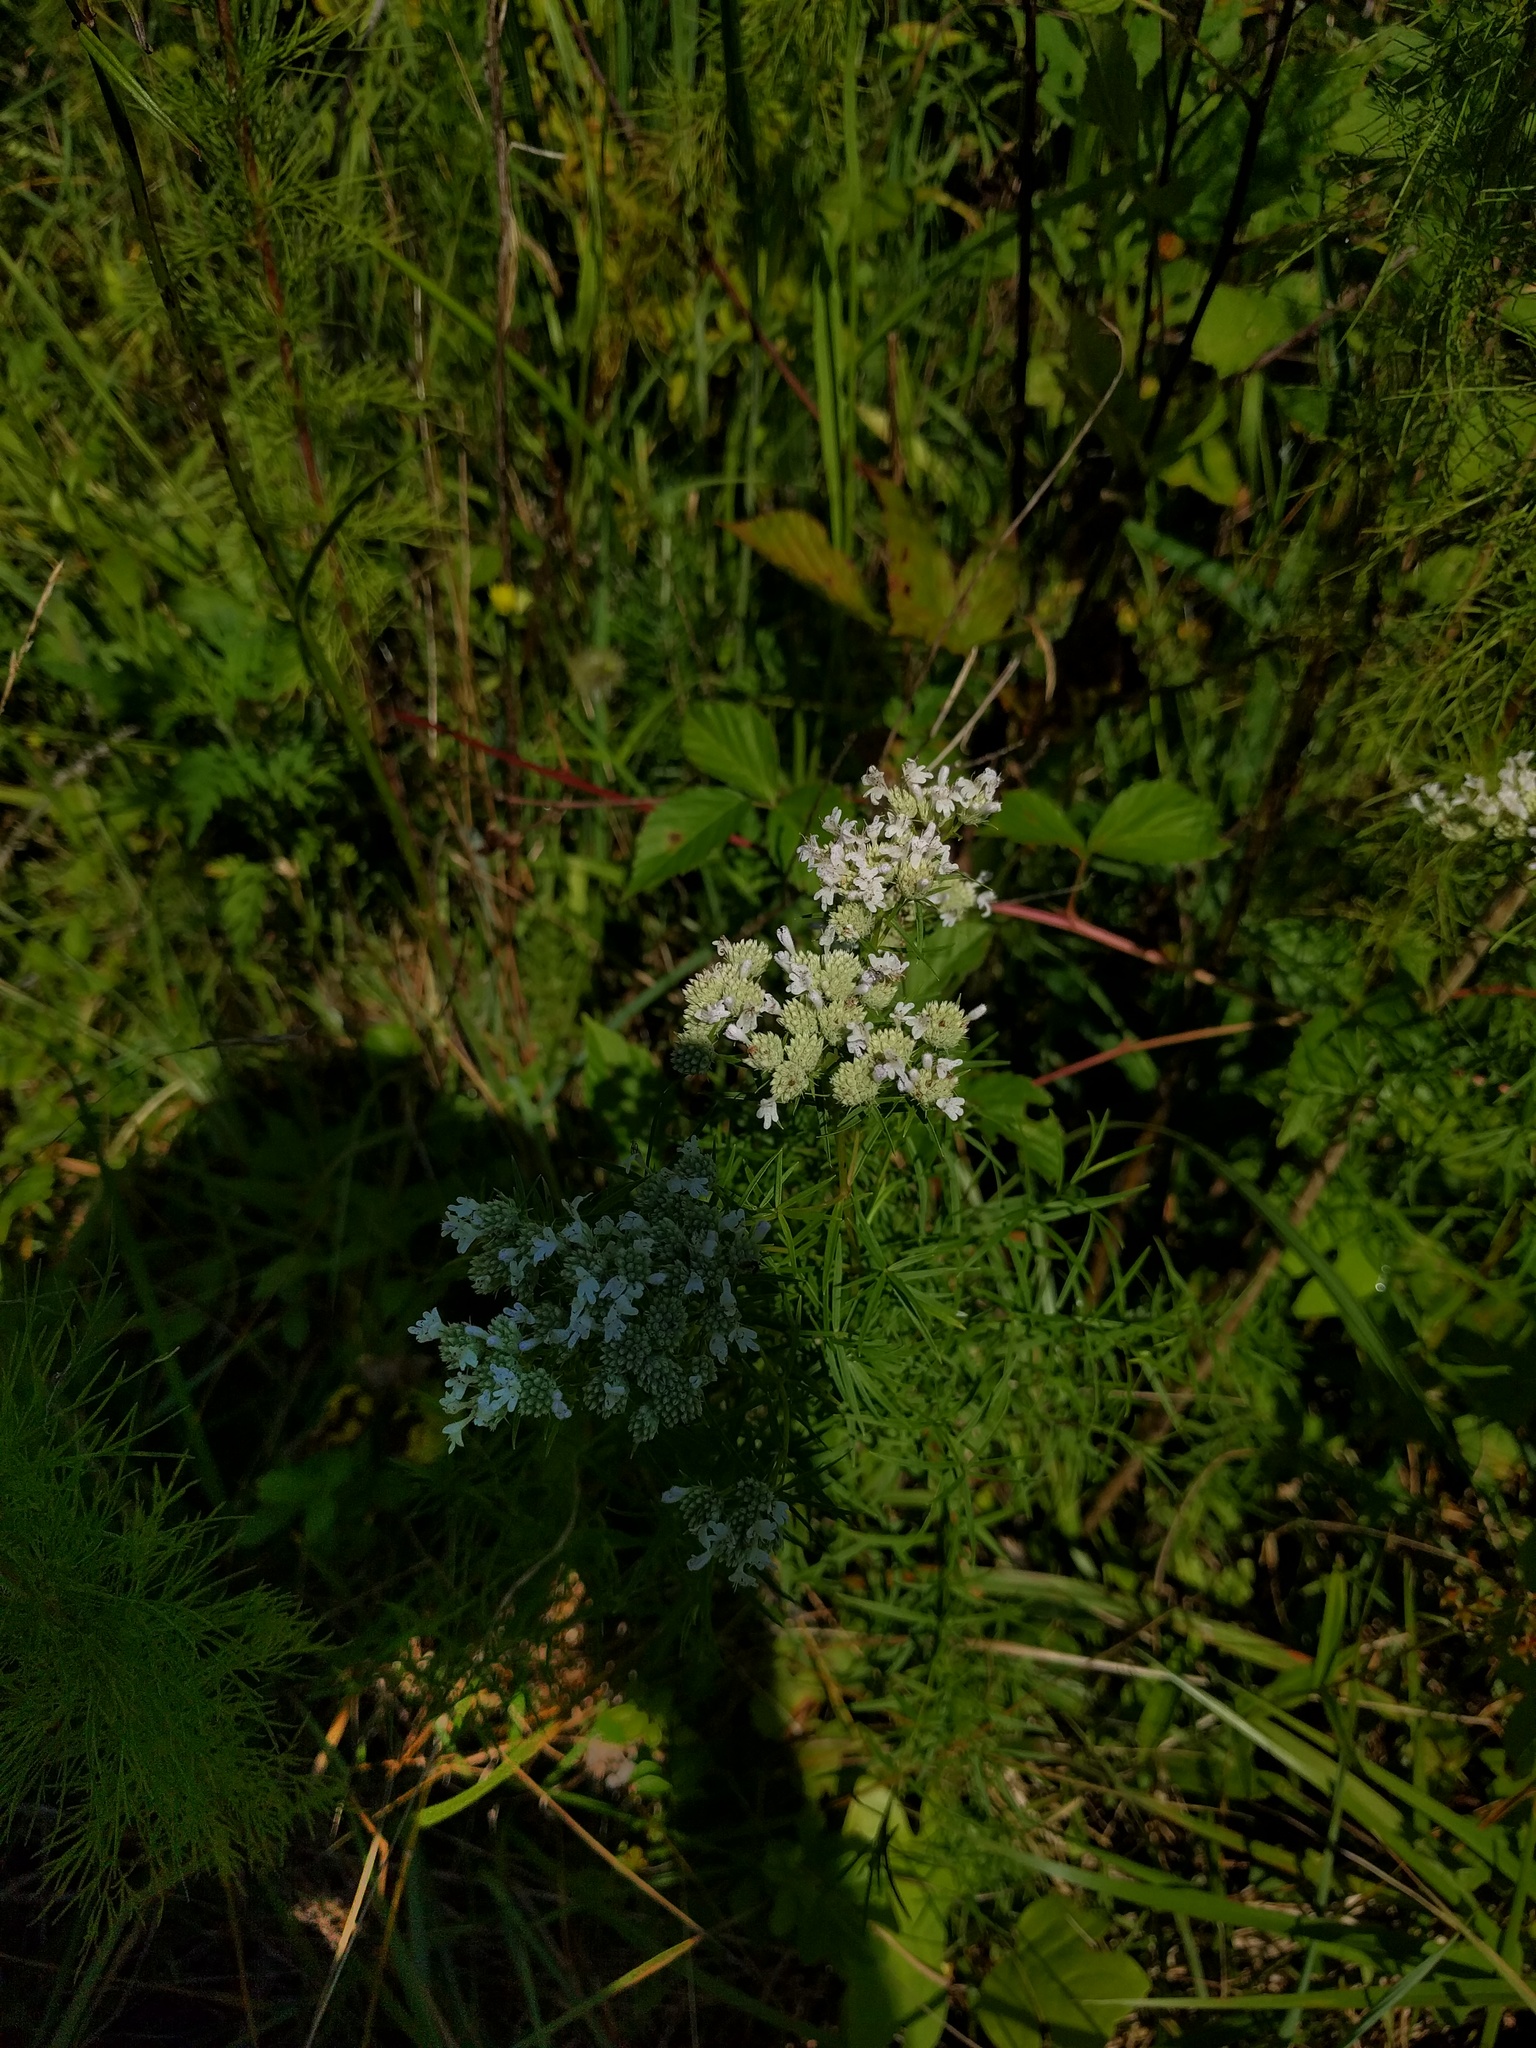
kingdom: Plantae
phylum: Tracheophyta
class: Magnoliopsida
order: Lamiales
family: Lamiaceae
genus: Pycnanthemum
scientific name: Pycnanthemum tenuifolium
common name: Narrow-leaf mountain-mint
